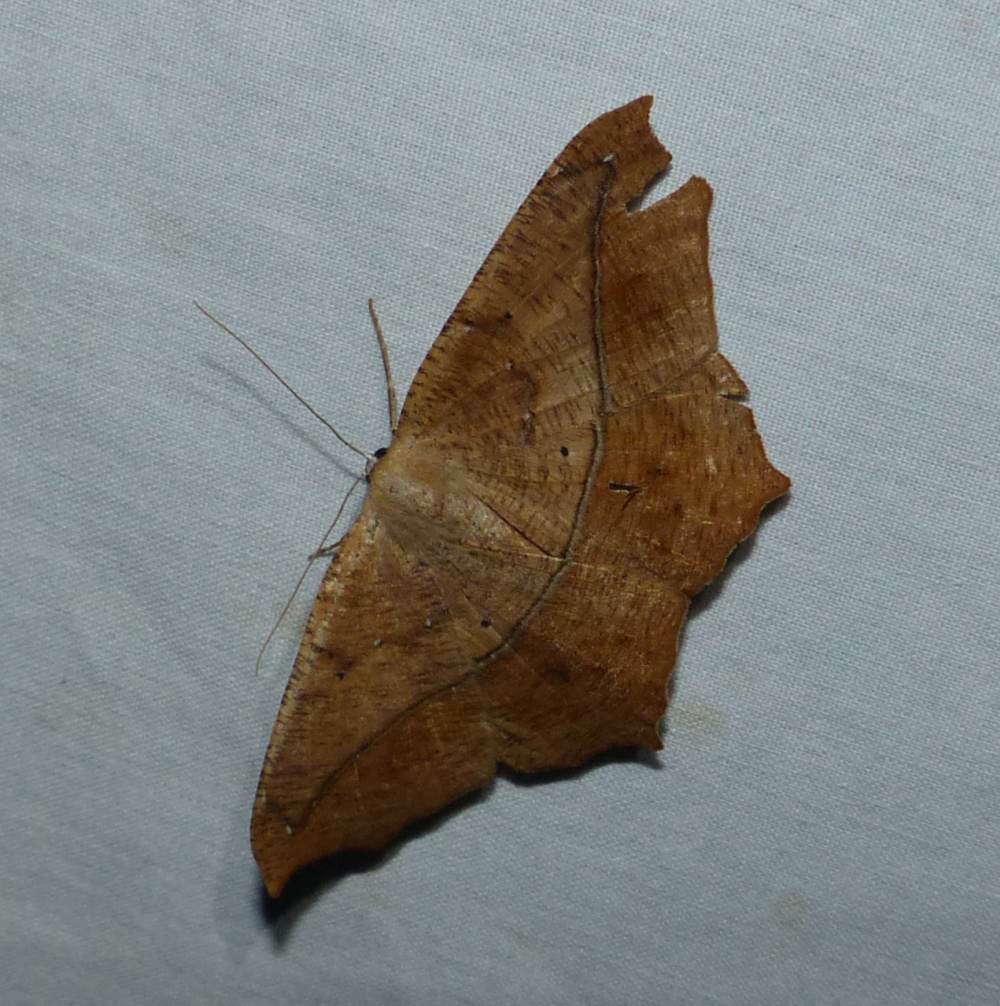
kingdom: Animalia
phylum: Arthropoda
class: Insecta
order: Lepidoptera
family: Geometridae
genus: Prochoerodes
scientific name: Prochoerodes lineola
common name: Large maple spanworm
